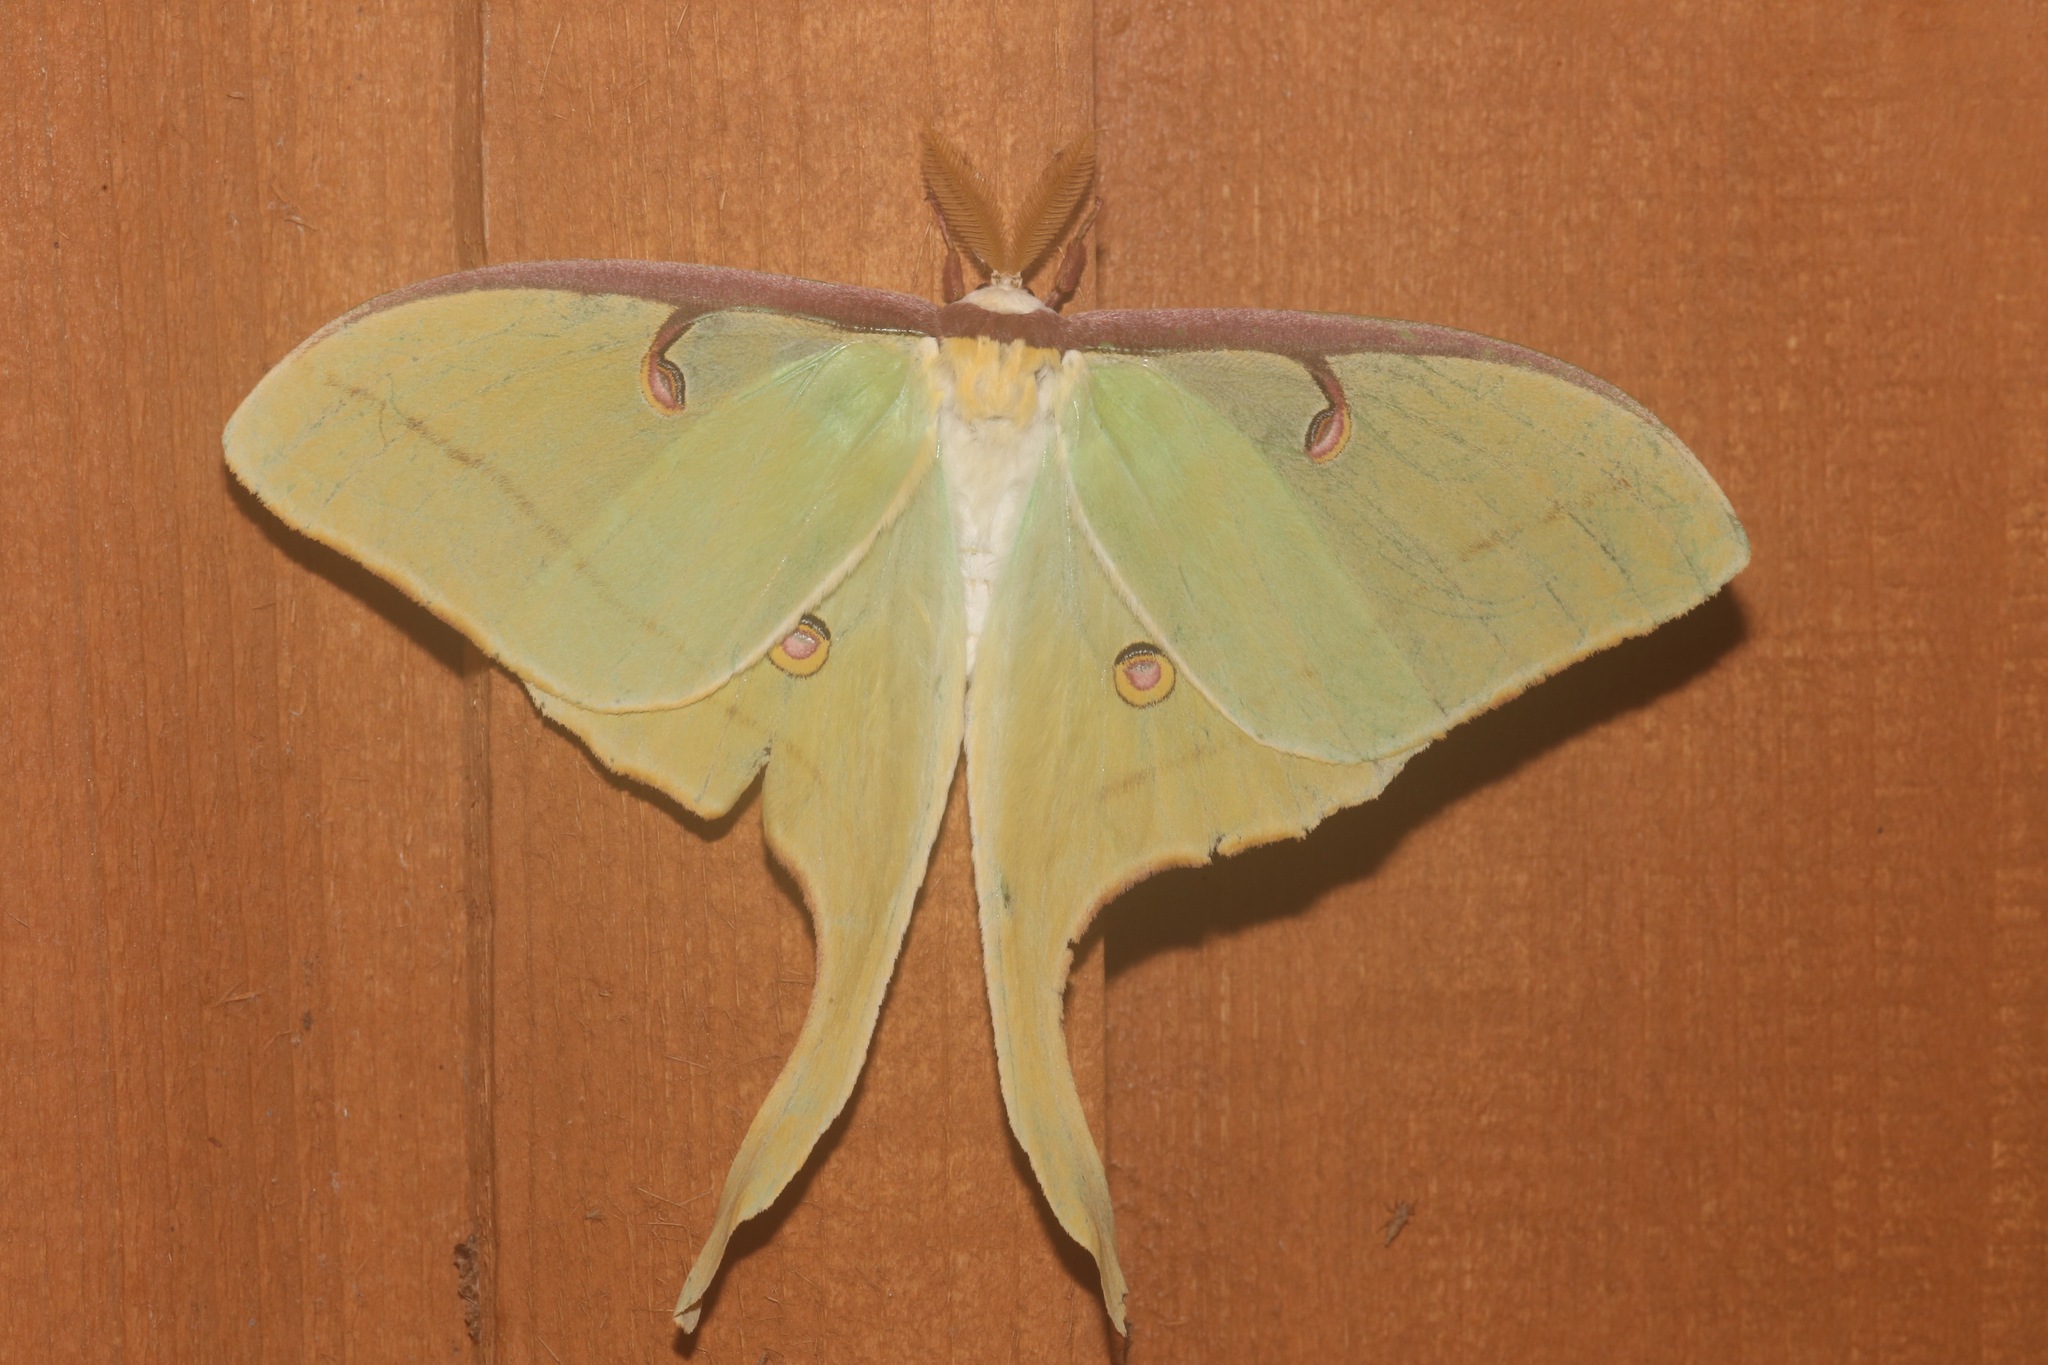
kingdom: Animalia
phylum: Arthropoda
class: Insecta
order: Lepidoptera
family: Saturniidae
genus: Actias
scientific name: Actias luna
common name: Luna moth
